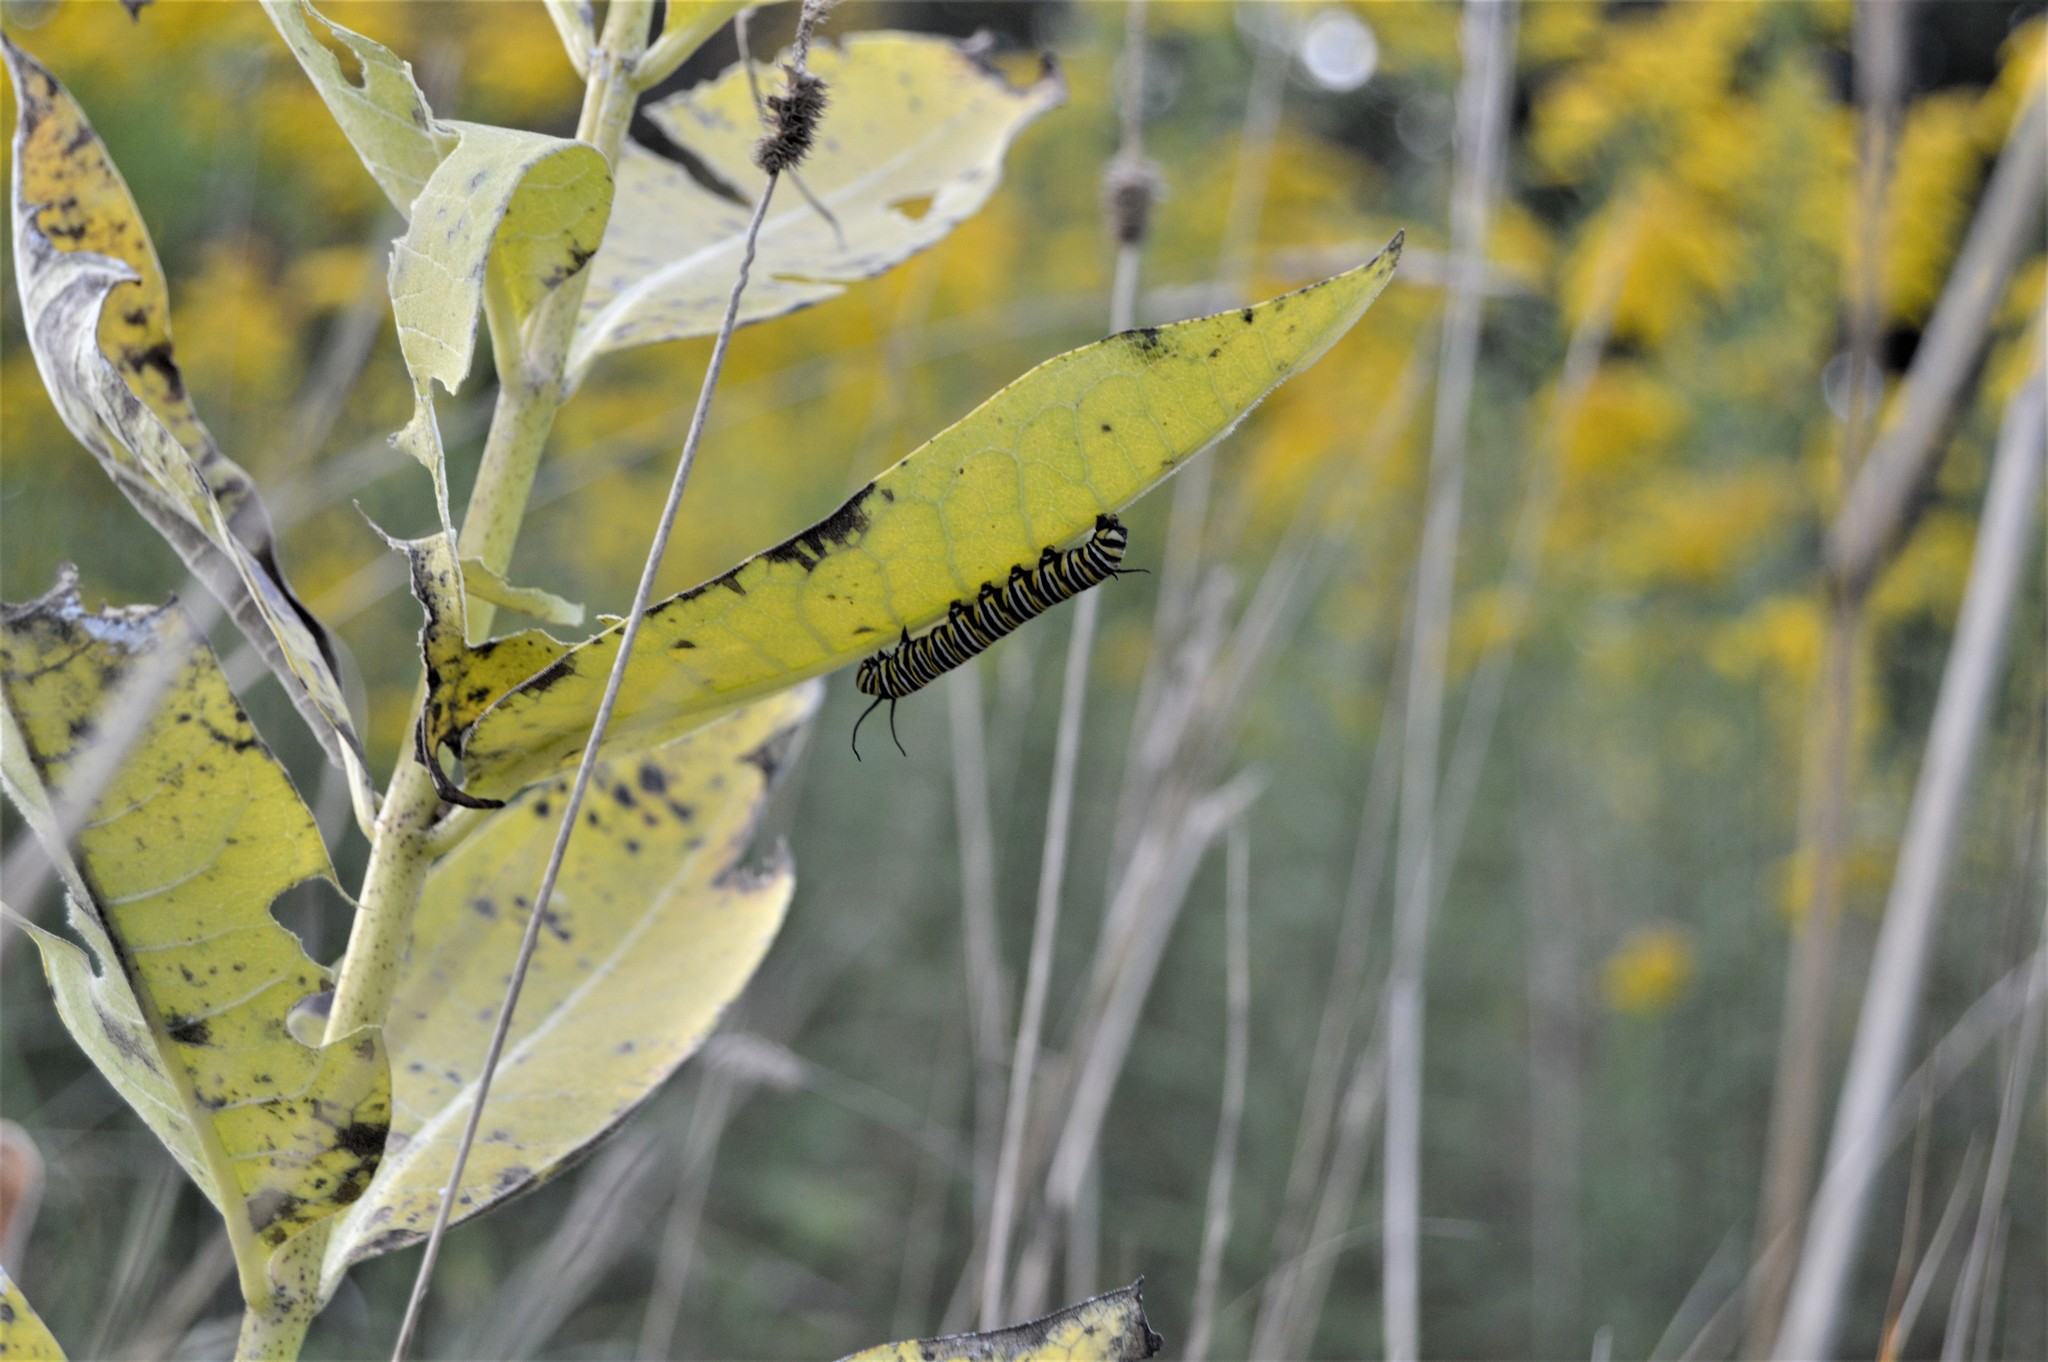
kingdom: Animalia
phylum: Arthropoda
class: Insecta
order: Lepidoptera
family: Nymphalidae
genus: Danaus
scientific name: Danaus plexippus
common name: Monarch
